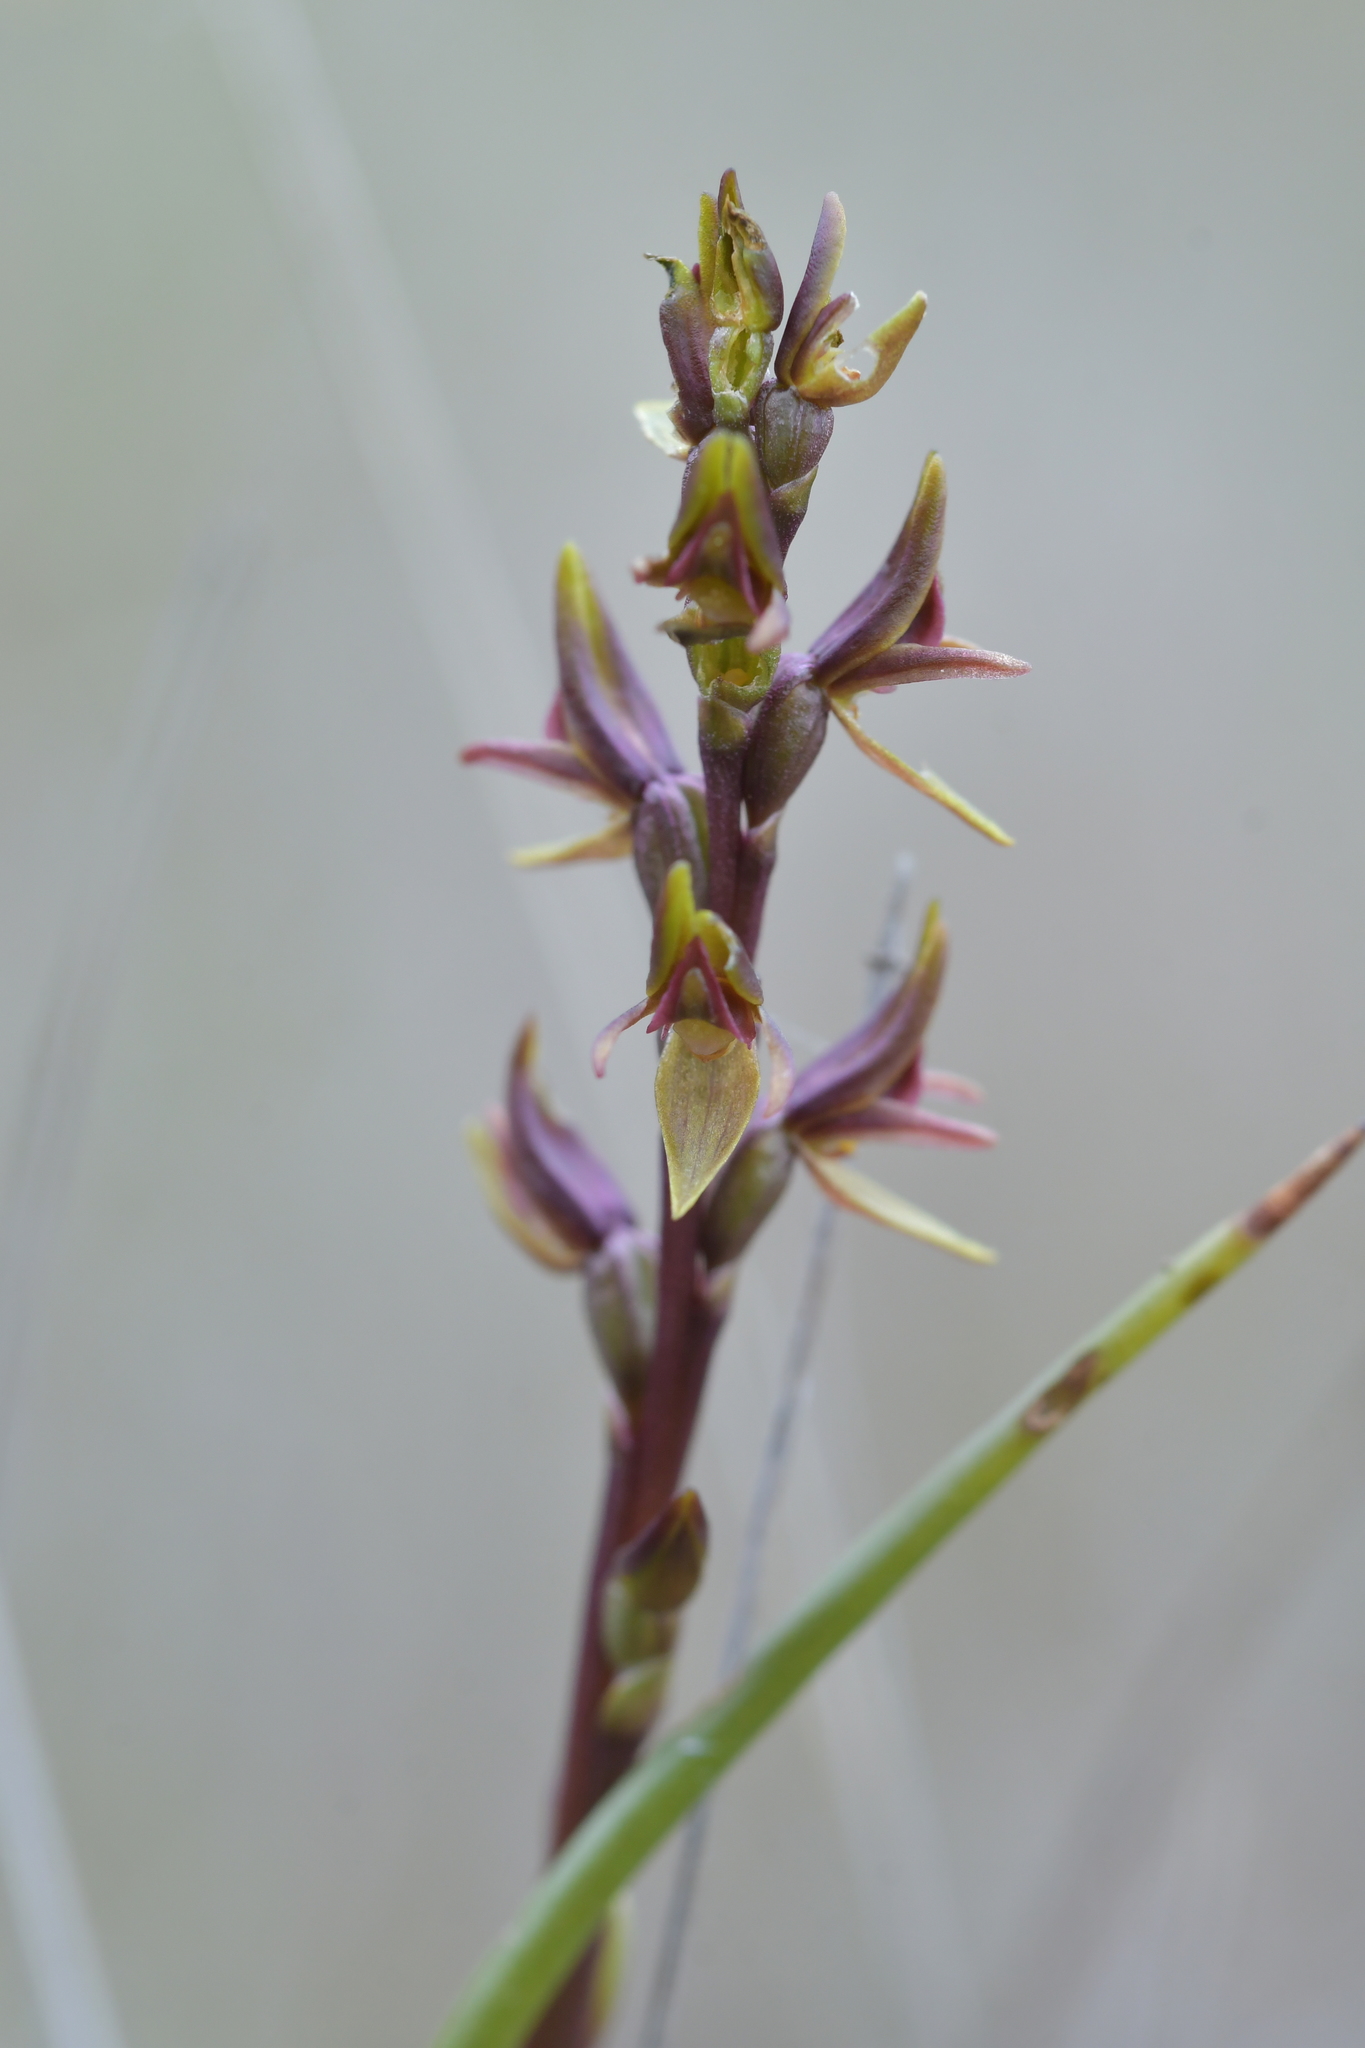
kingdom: Plantae
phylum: Tracheophyta
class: Liliopsida
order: Asparagales
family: Orchidaceae
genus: Prasophyllum
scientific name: Prasophyllum colensoi
